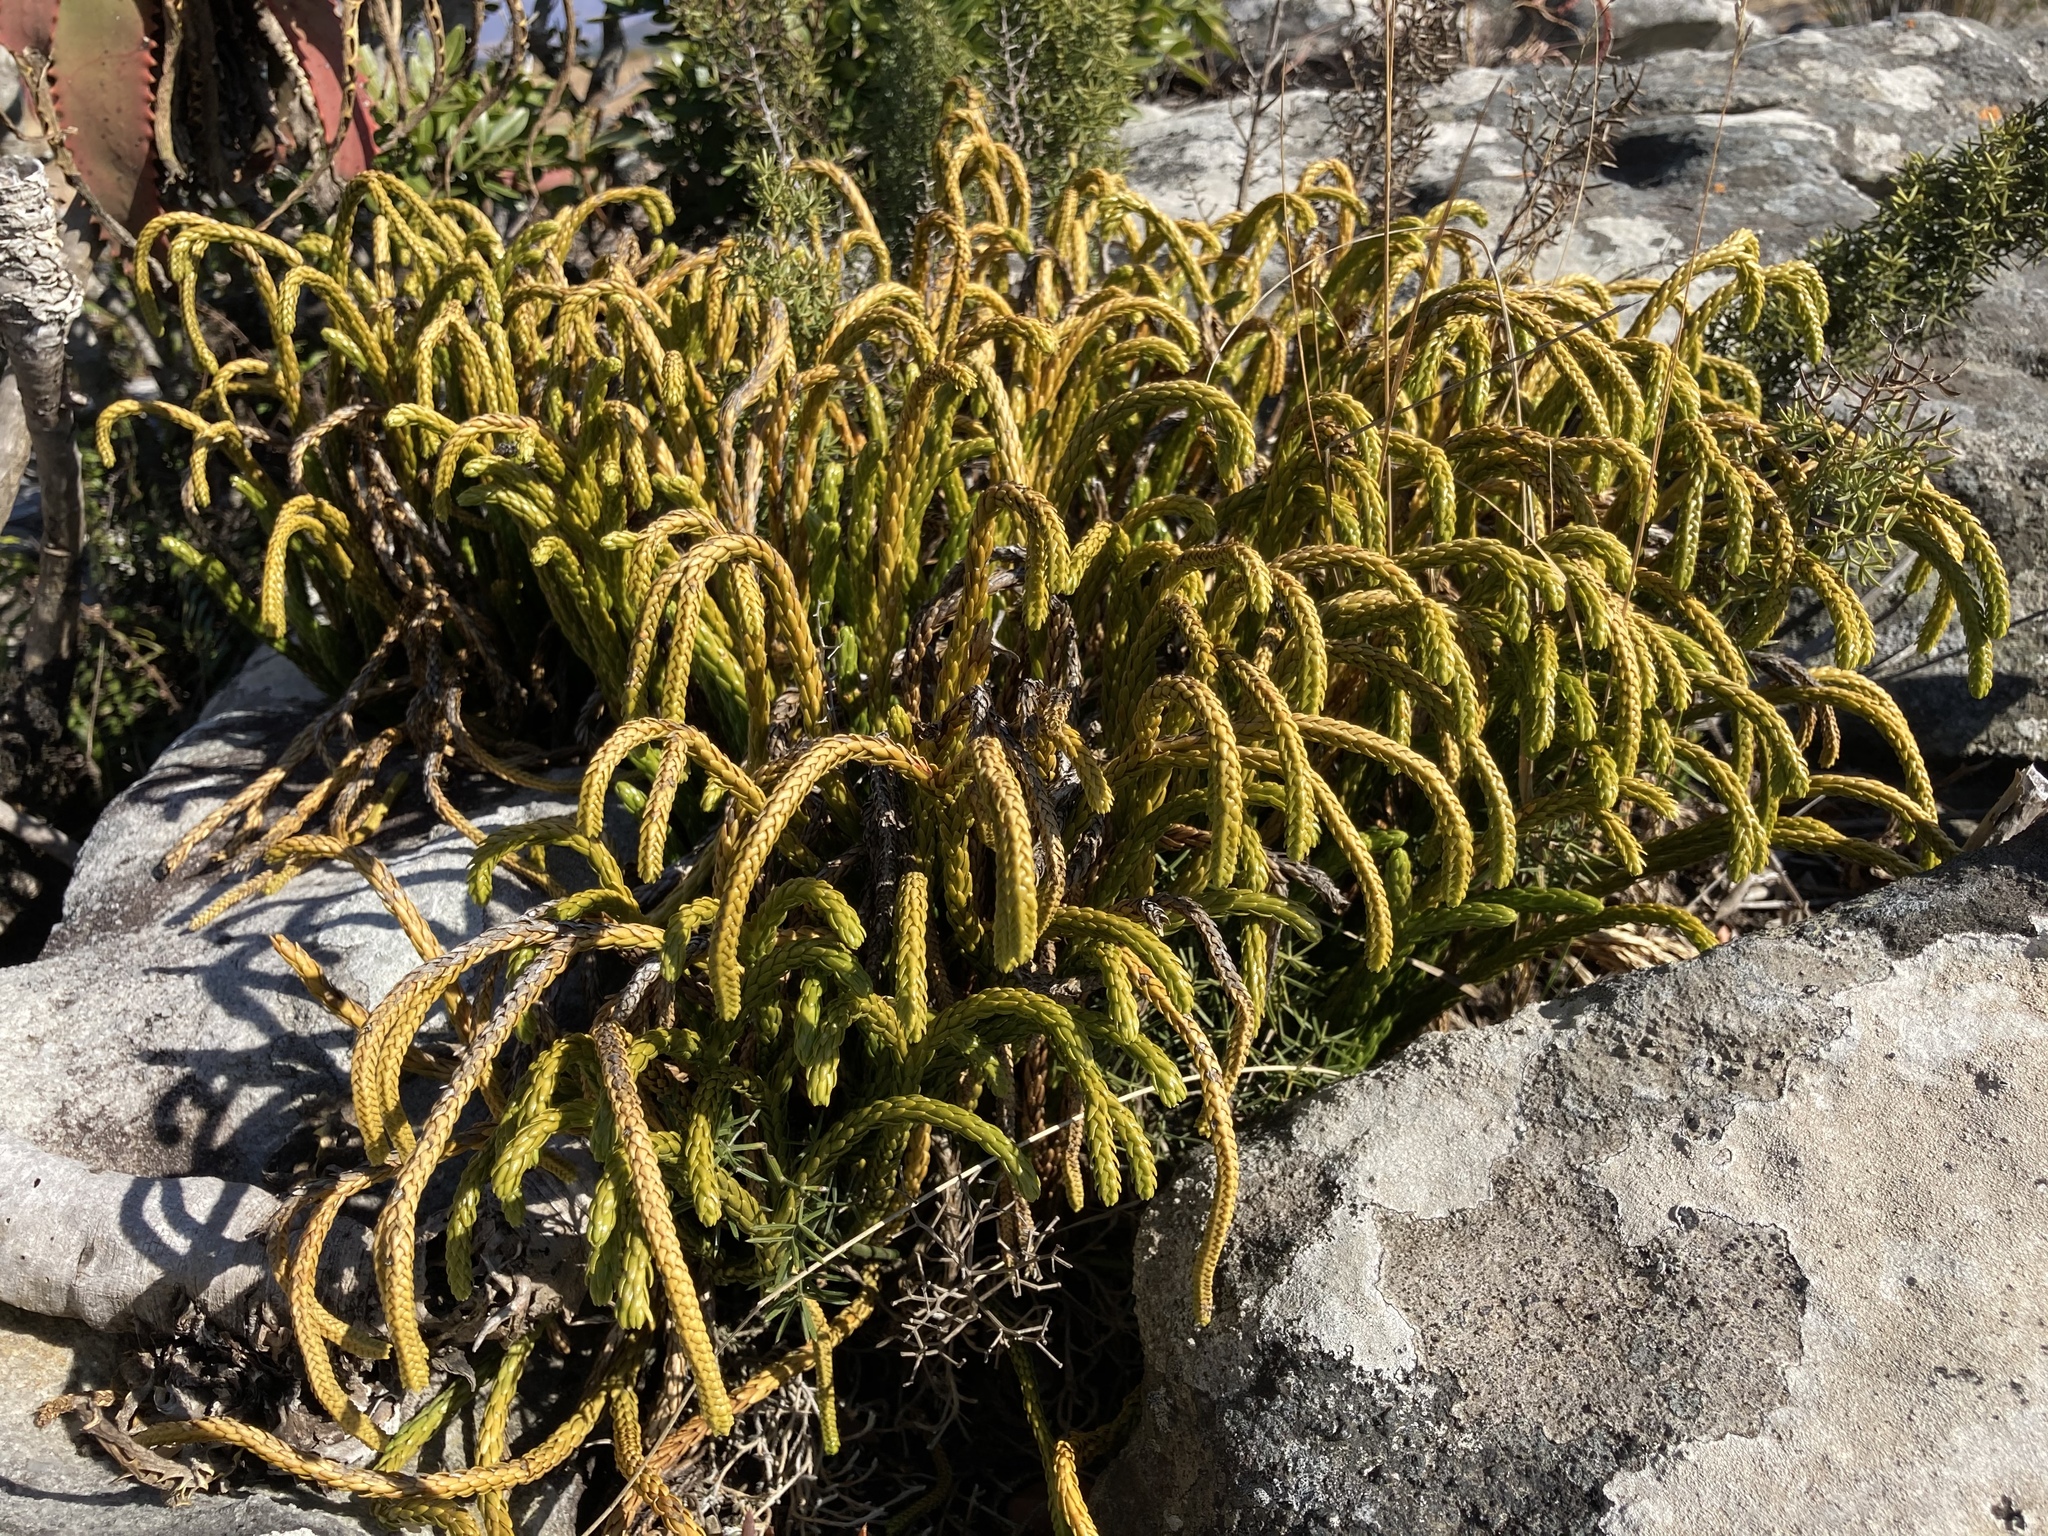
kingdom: Plantae
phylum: Tracheophyta
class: Lycopodiopsida
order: Lycopodiales
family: Lycopodiaceae
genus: Phlegmariurus
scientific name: Phlegmariurus gnidioides
